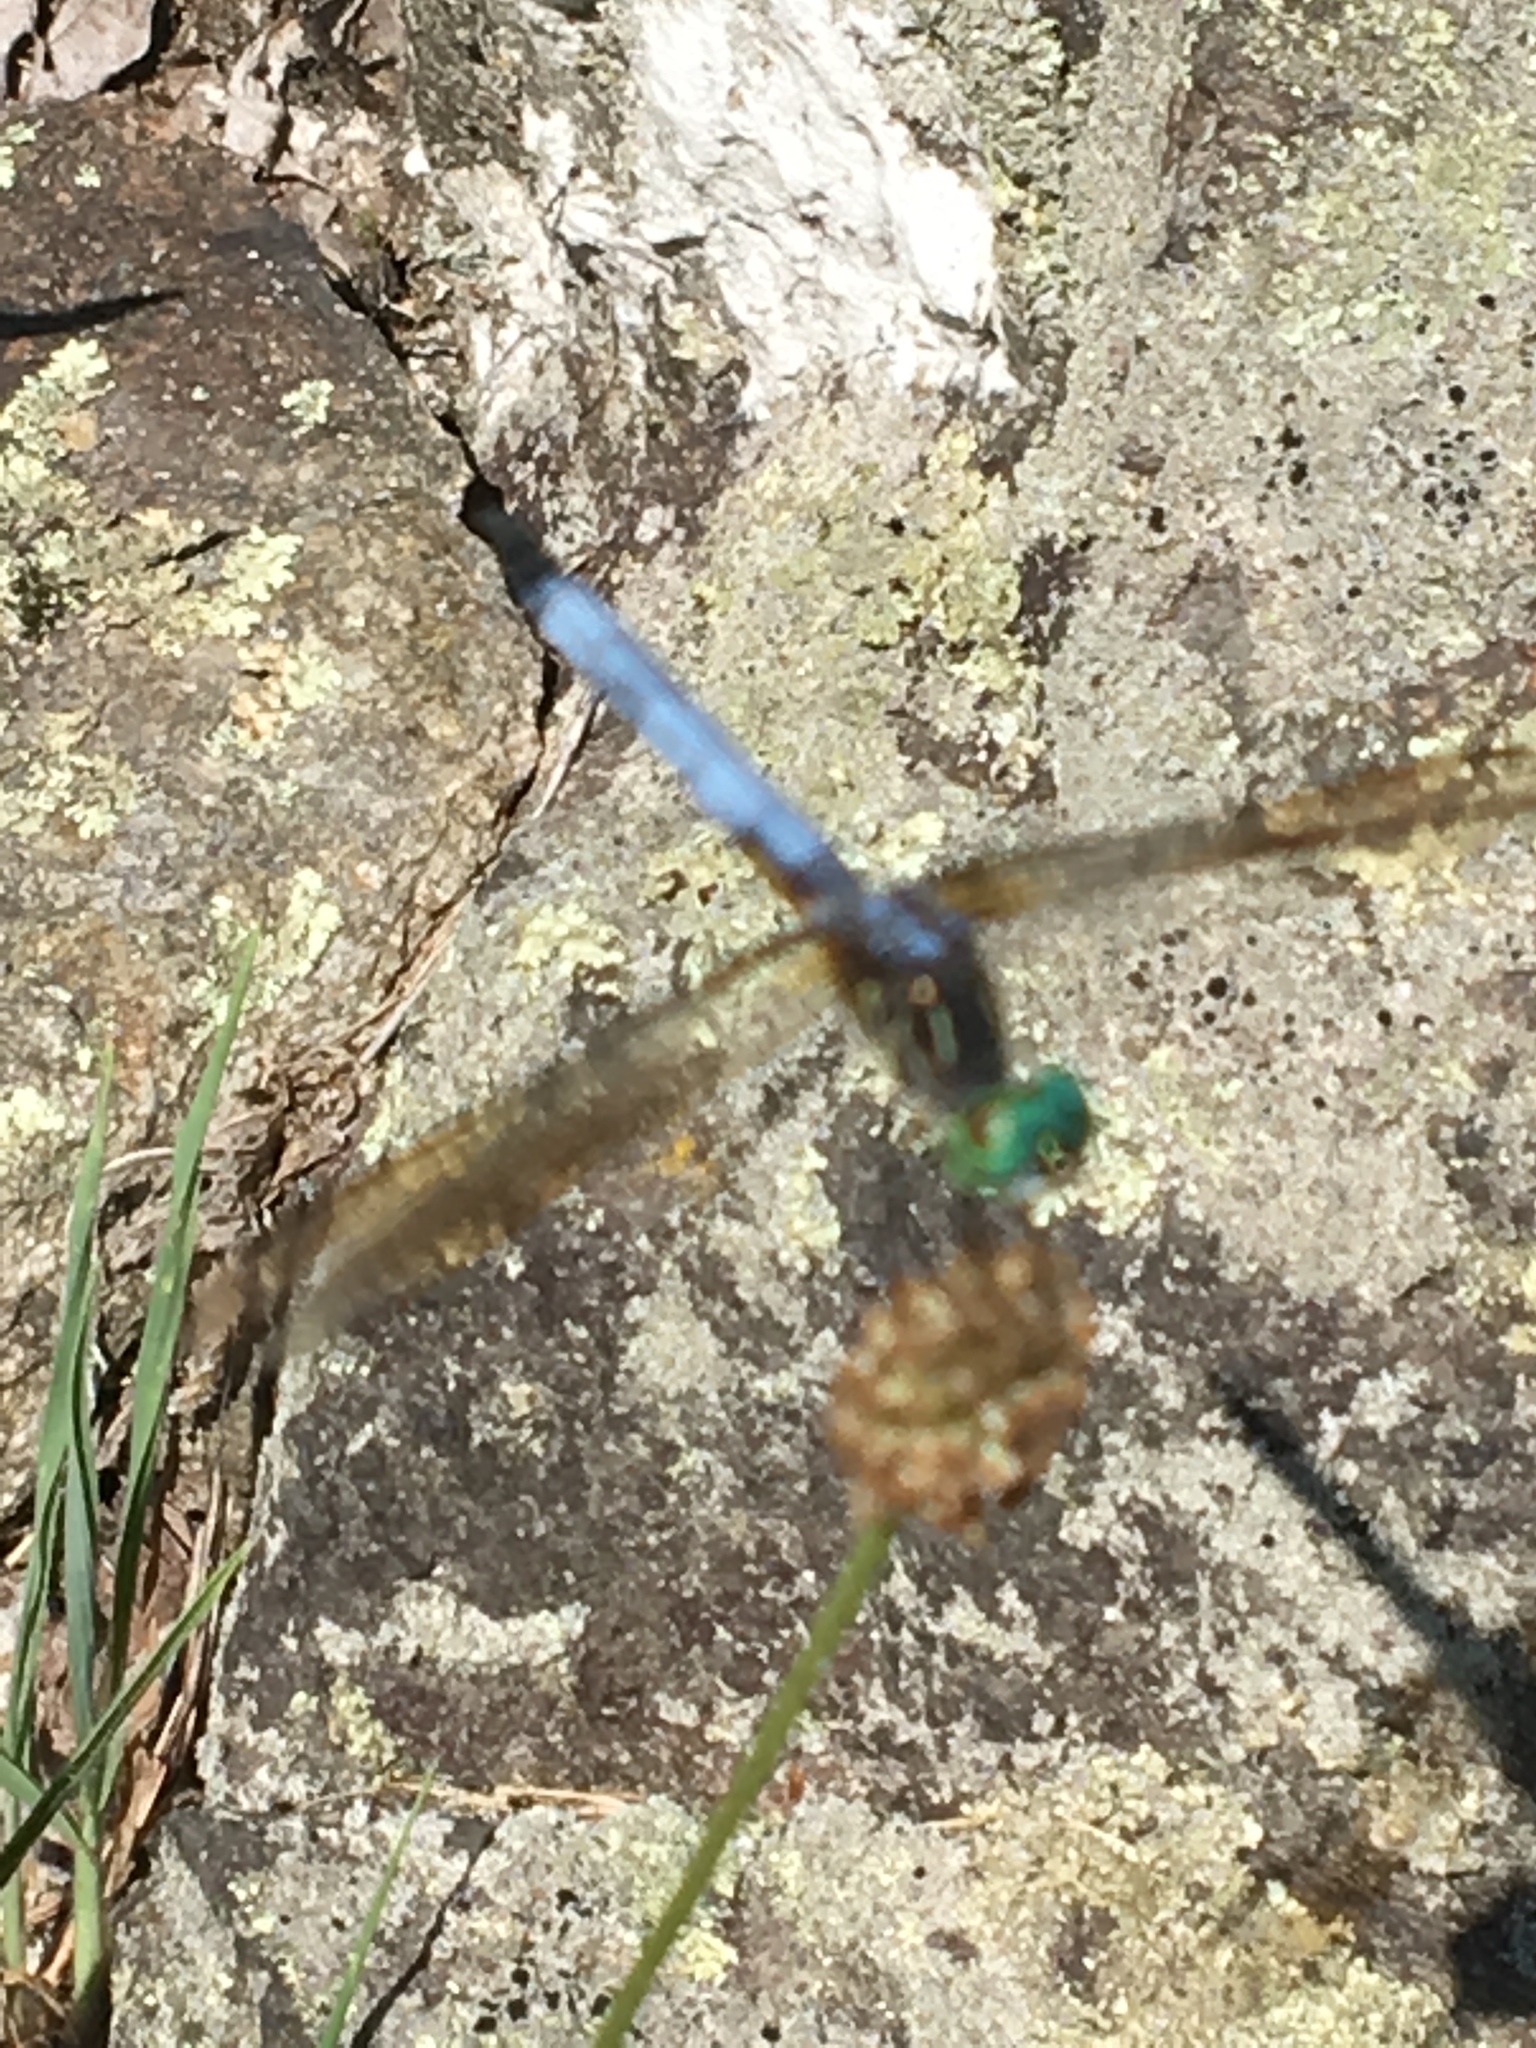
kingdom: Animalia
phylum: Arthropoda
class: Insecta
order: Odonata
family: Libellulidae
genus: Pachydiplax
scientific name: Pachydiplax longipennis
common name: Blue dasher
